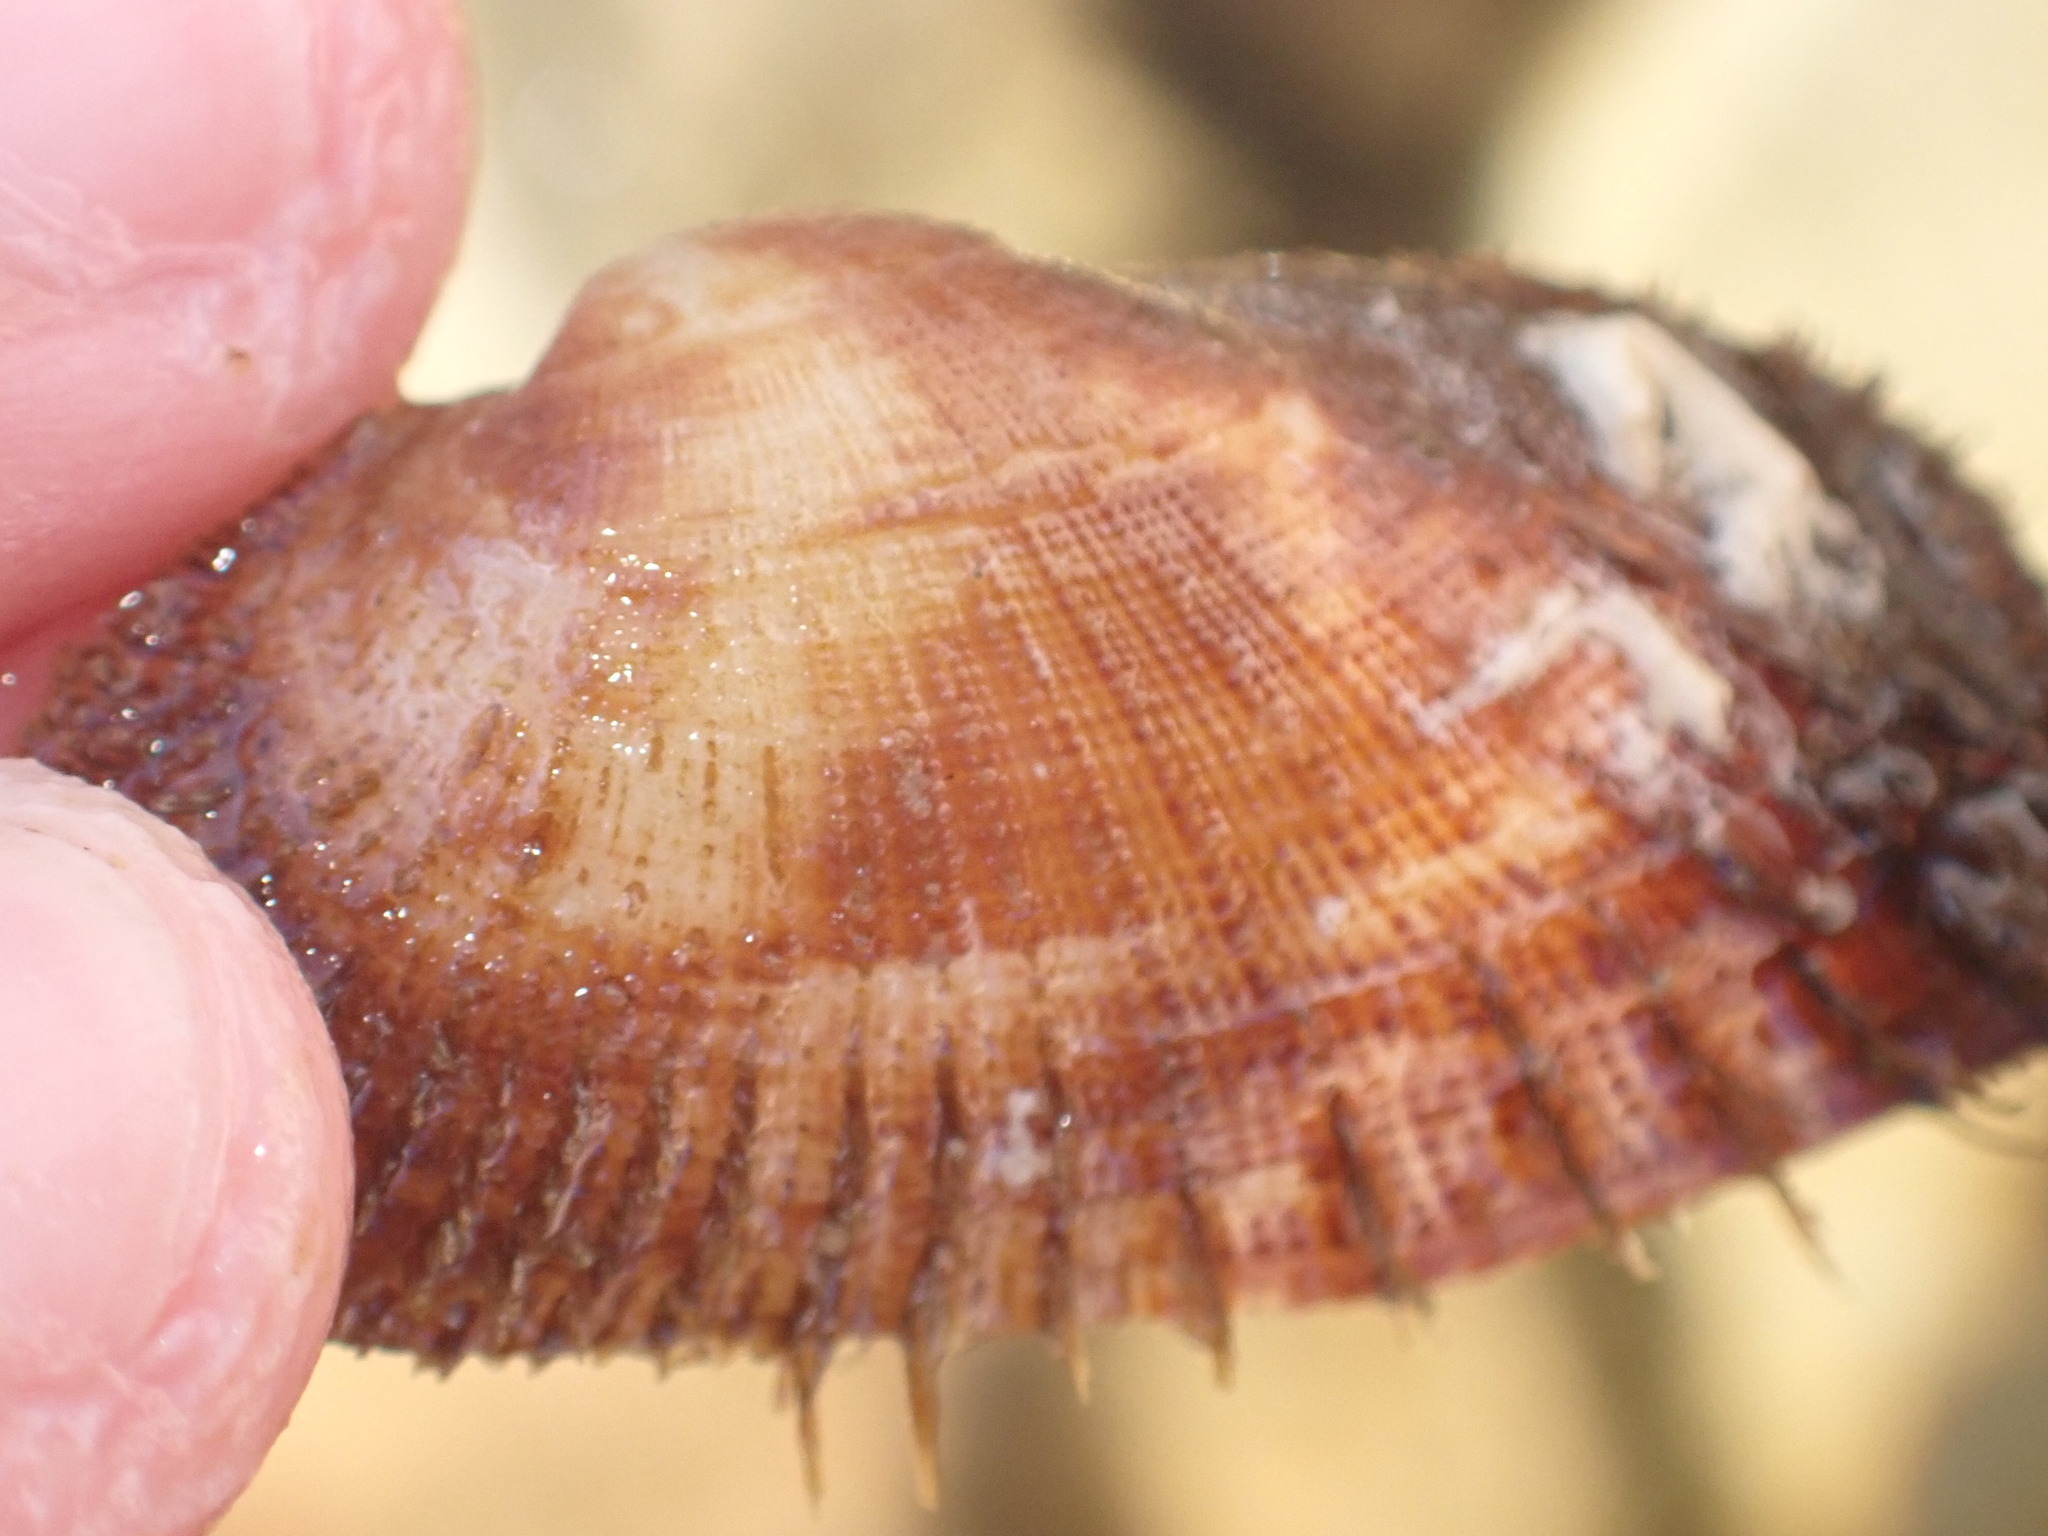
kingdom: Animalia
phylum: Mollusca
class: Bivalvia
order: Arcida
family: Arcidae
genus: Barbatia
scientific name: Barbatia barbata
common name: Bearded ark
